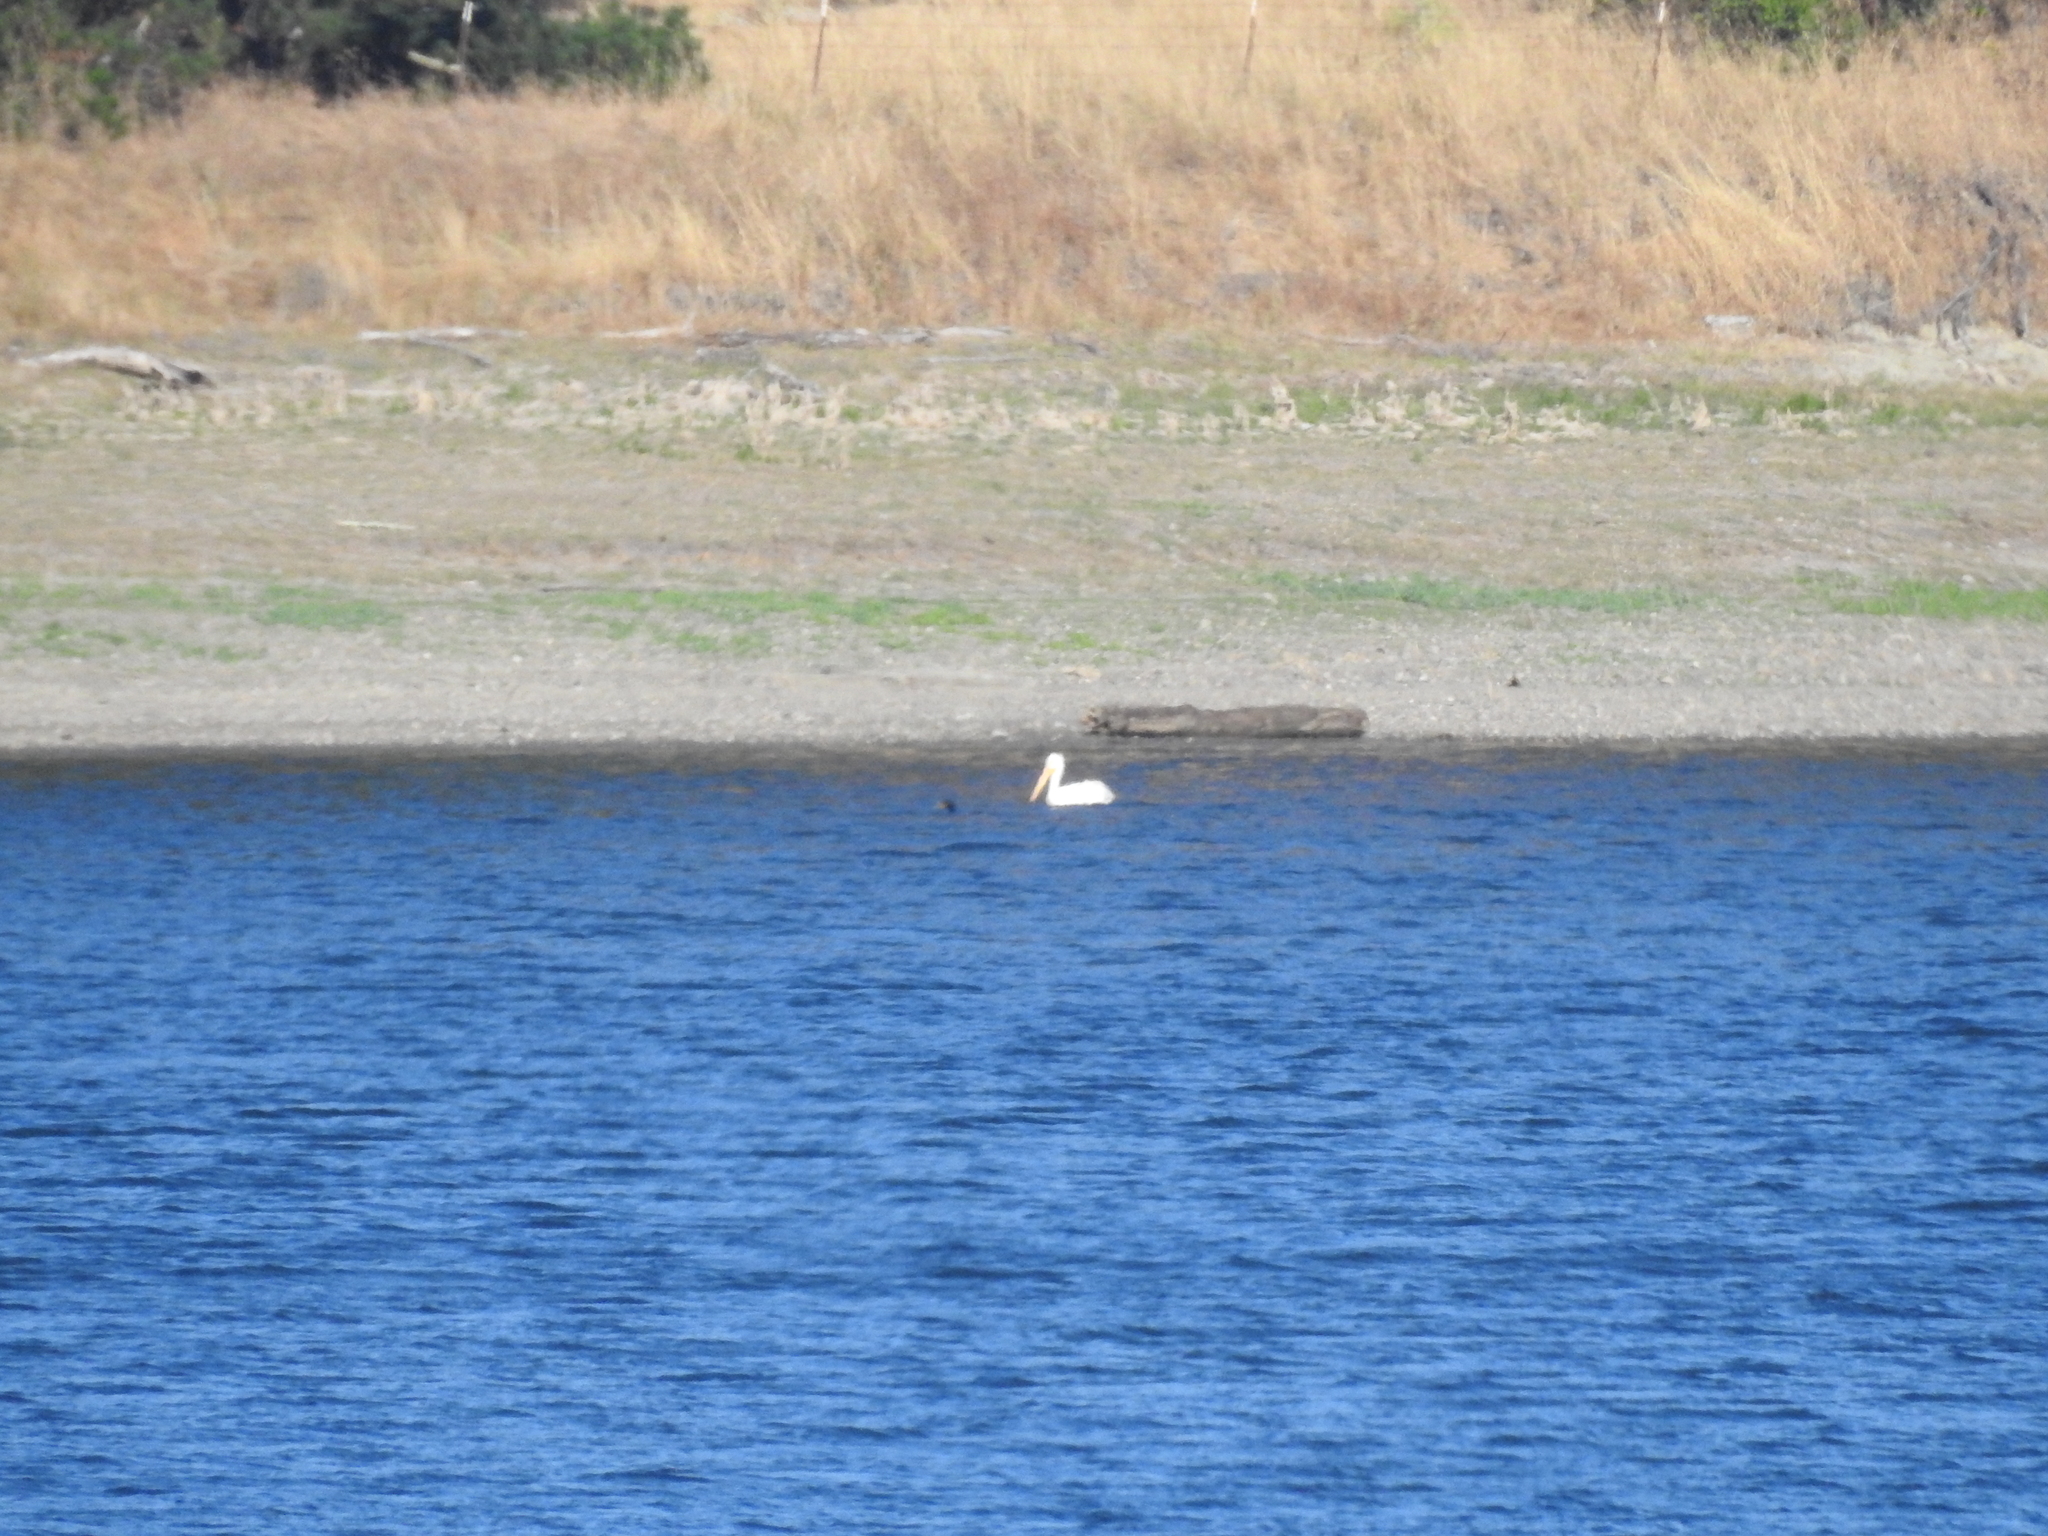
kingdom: Animalia
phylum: Chordata
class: Aves
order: Pelecaniformes
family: Pelecanidae
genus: Pelecanus
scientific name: Pelecanus erythrorhynchos
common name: American white pelican
